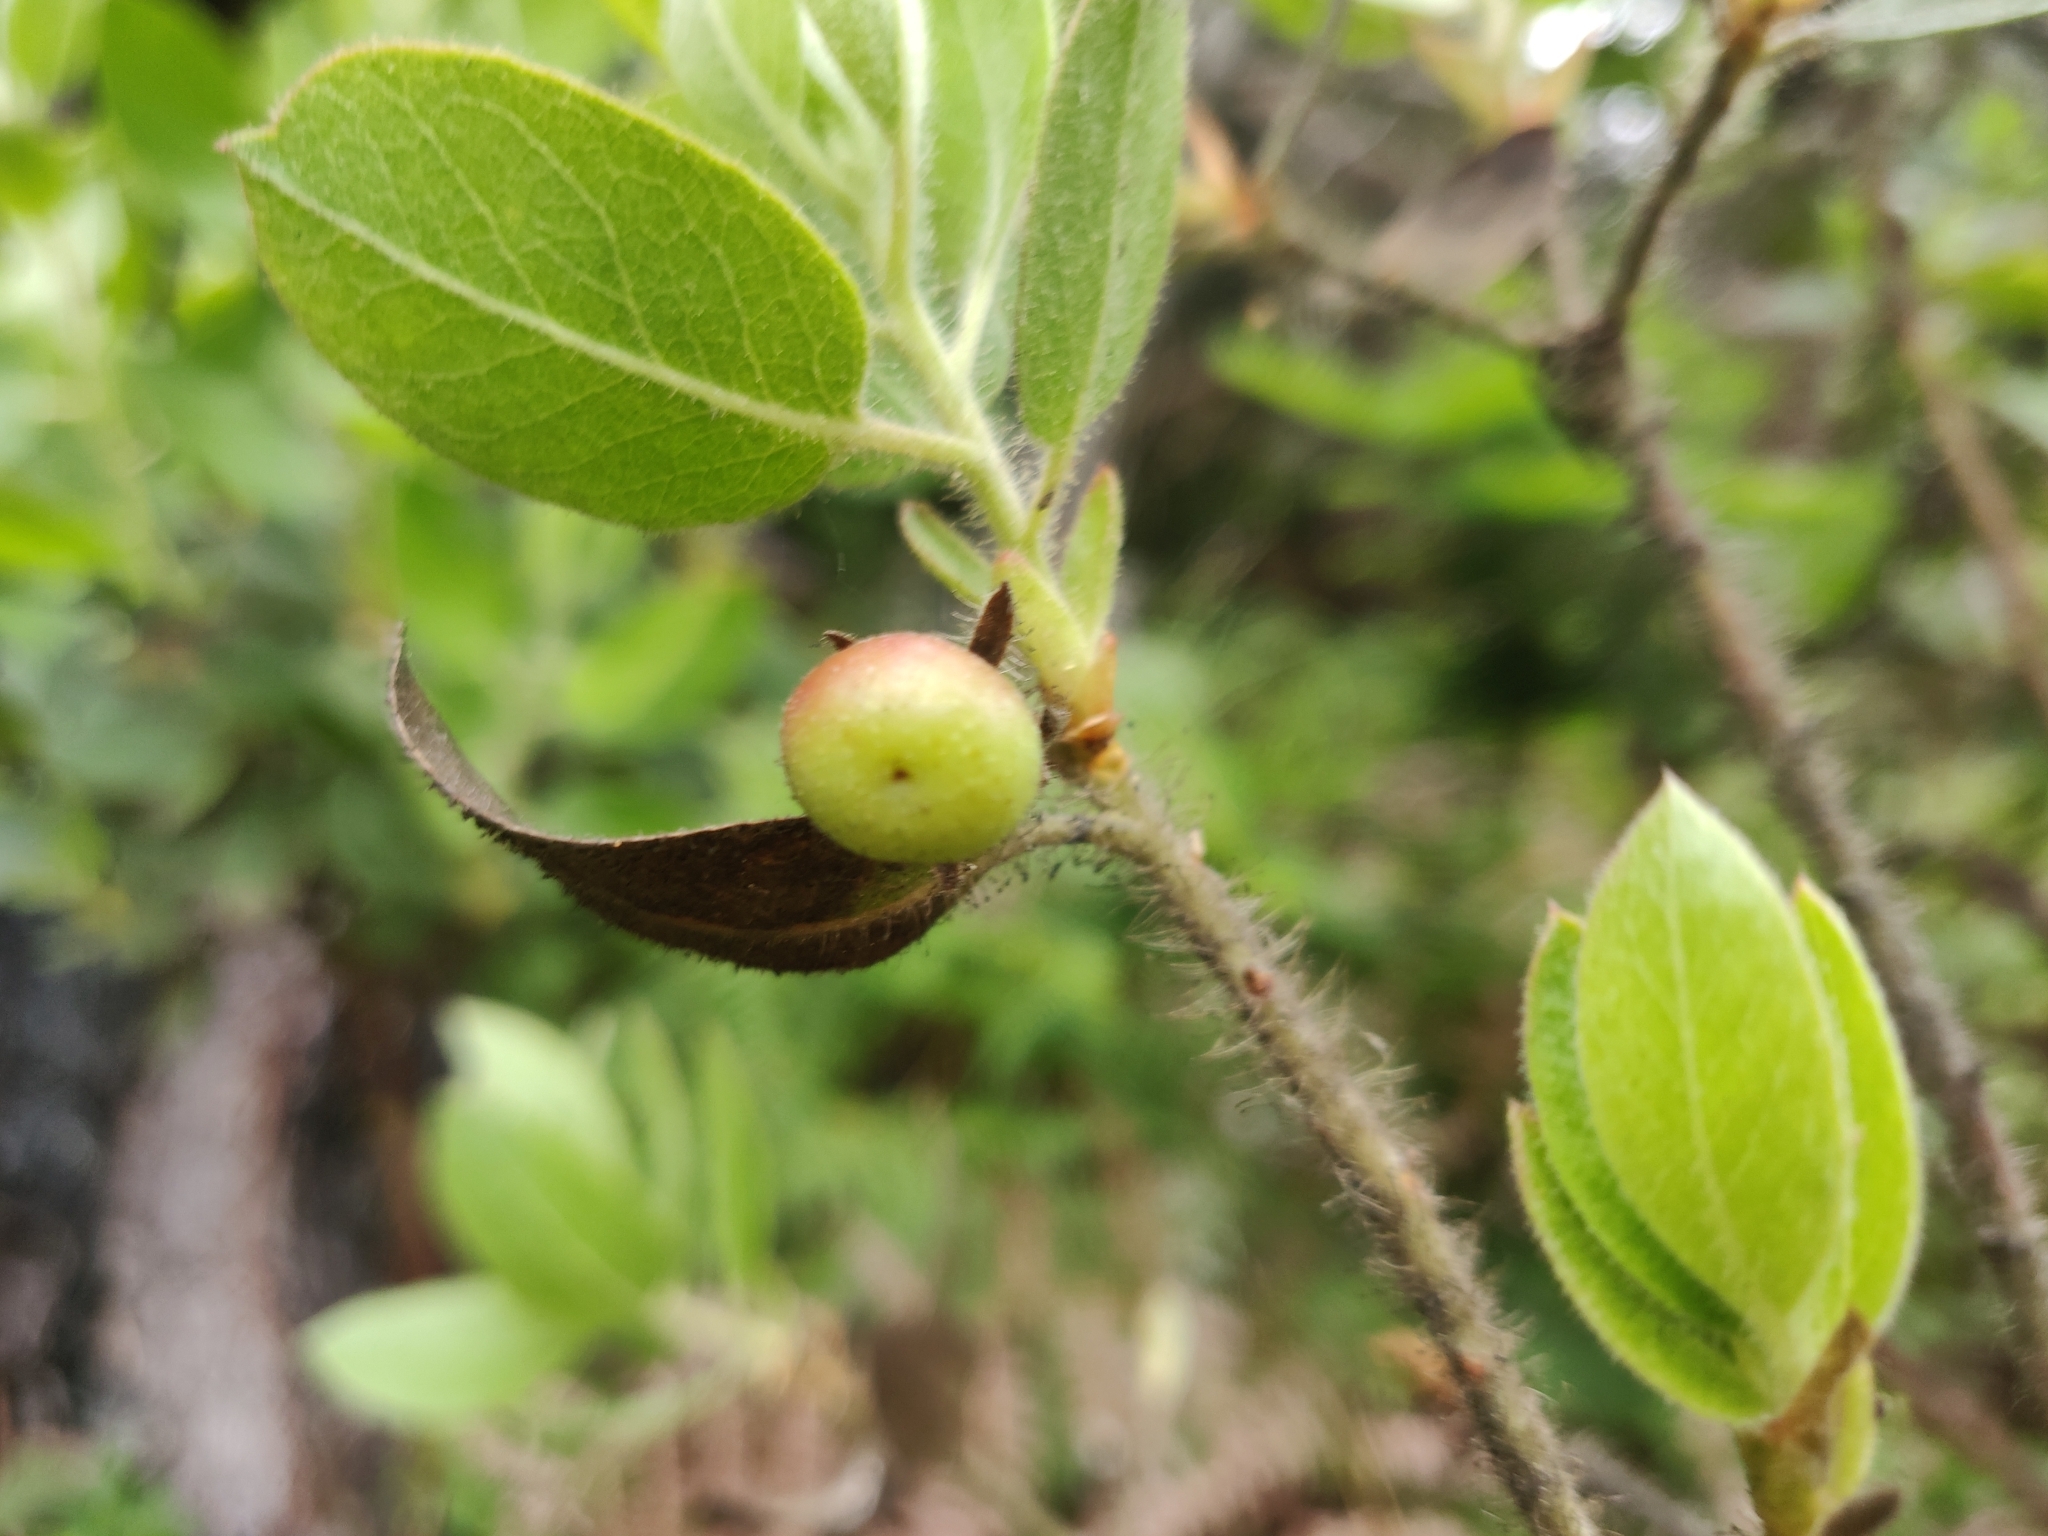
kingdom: Plantae
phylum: Tracheophyta
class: Magnoliopsida
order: Ericales
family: Ericaceae
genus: Arctostaphylos
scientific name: Arctostaphylos columbiana
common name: Bristly bearberry
